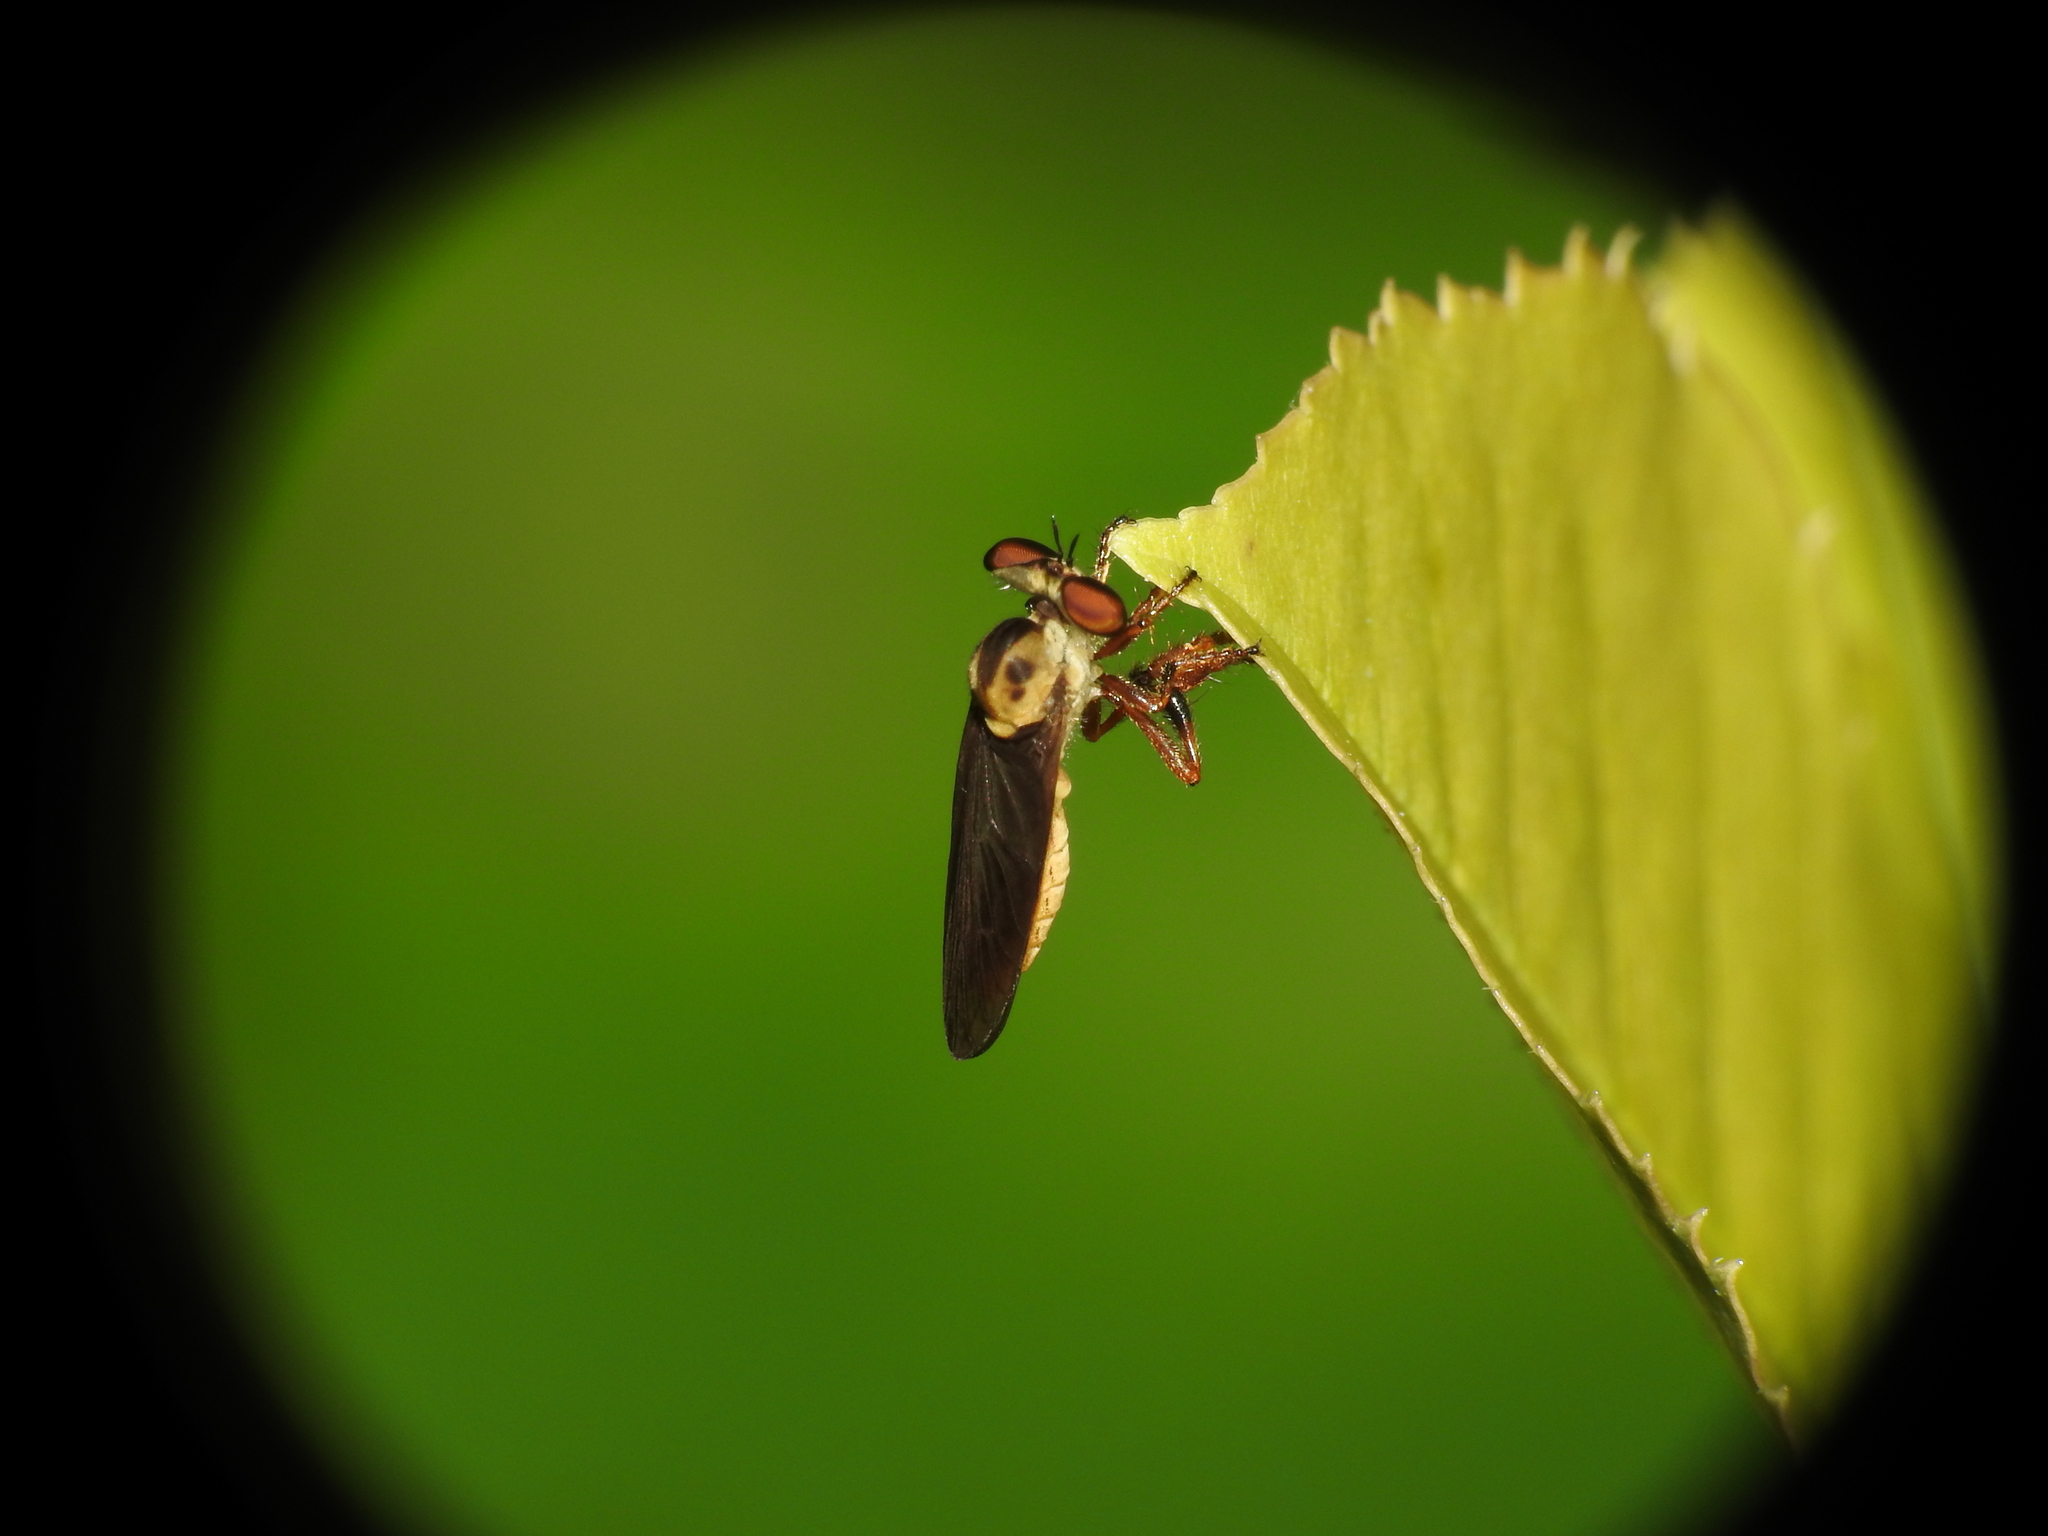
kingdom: Animalia
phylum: Arthropoda
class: Insecta
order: Diptera
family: Asilidae
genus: Holcocephala
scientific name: Holcocephala
